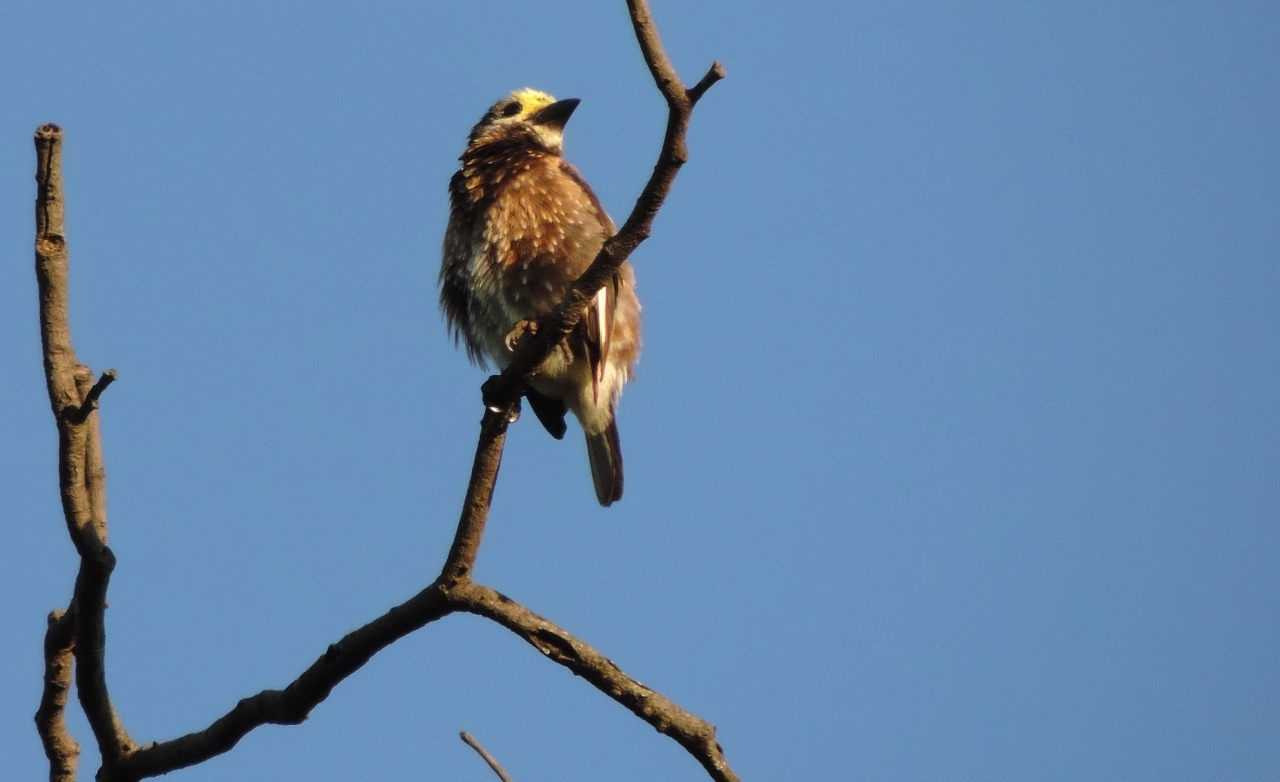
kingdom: Animalia
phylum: Chordata
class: Aves
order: Piciformes
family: Lybiidae
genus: Stactolaema
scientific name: Stactolaema whytii
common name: Whyte's barbet
